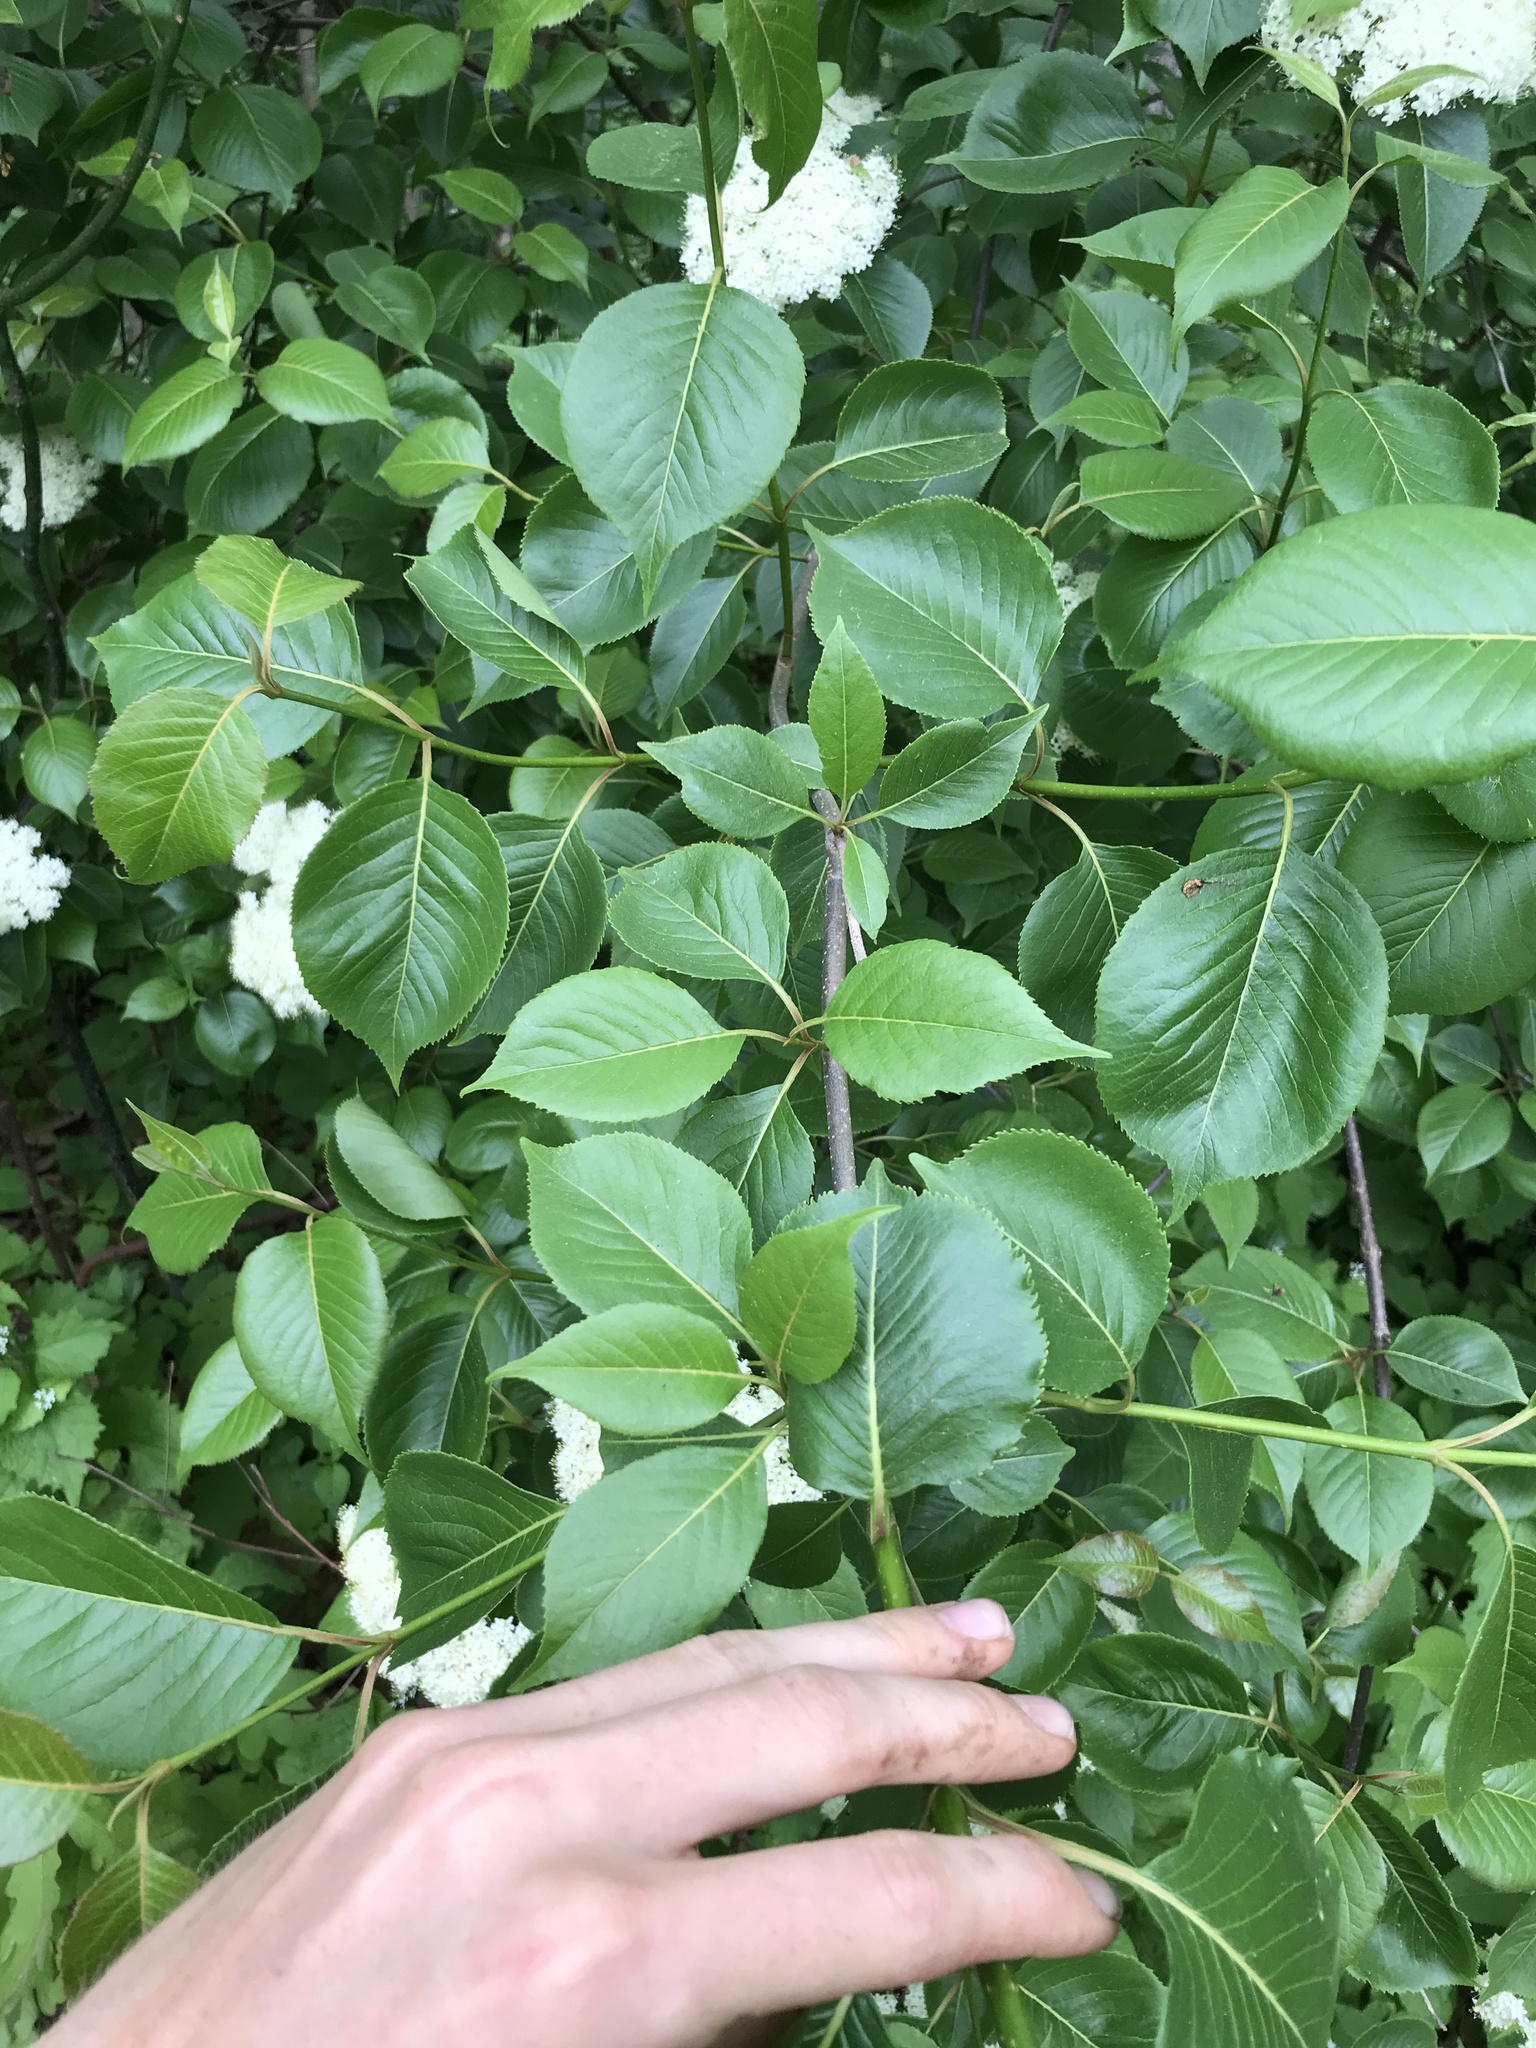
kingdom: Plantae
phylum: Tracheophyta
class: Magnoliopsida
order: Dipsacales
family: Viburnaceae
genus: Viburnum
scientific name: Viburnum lentago
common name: Black haw
